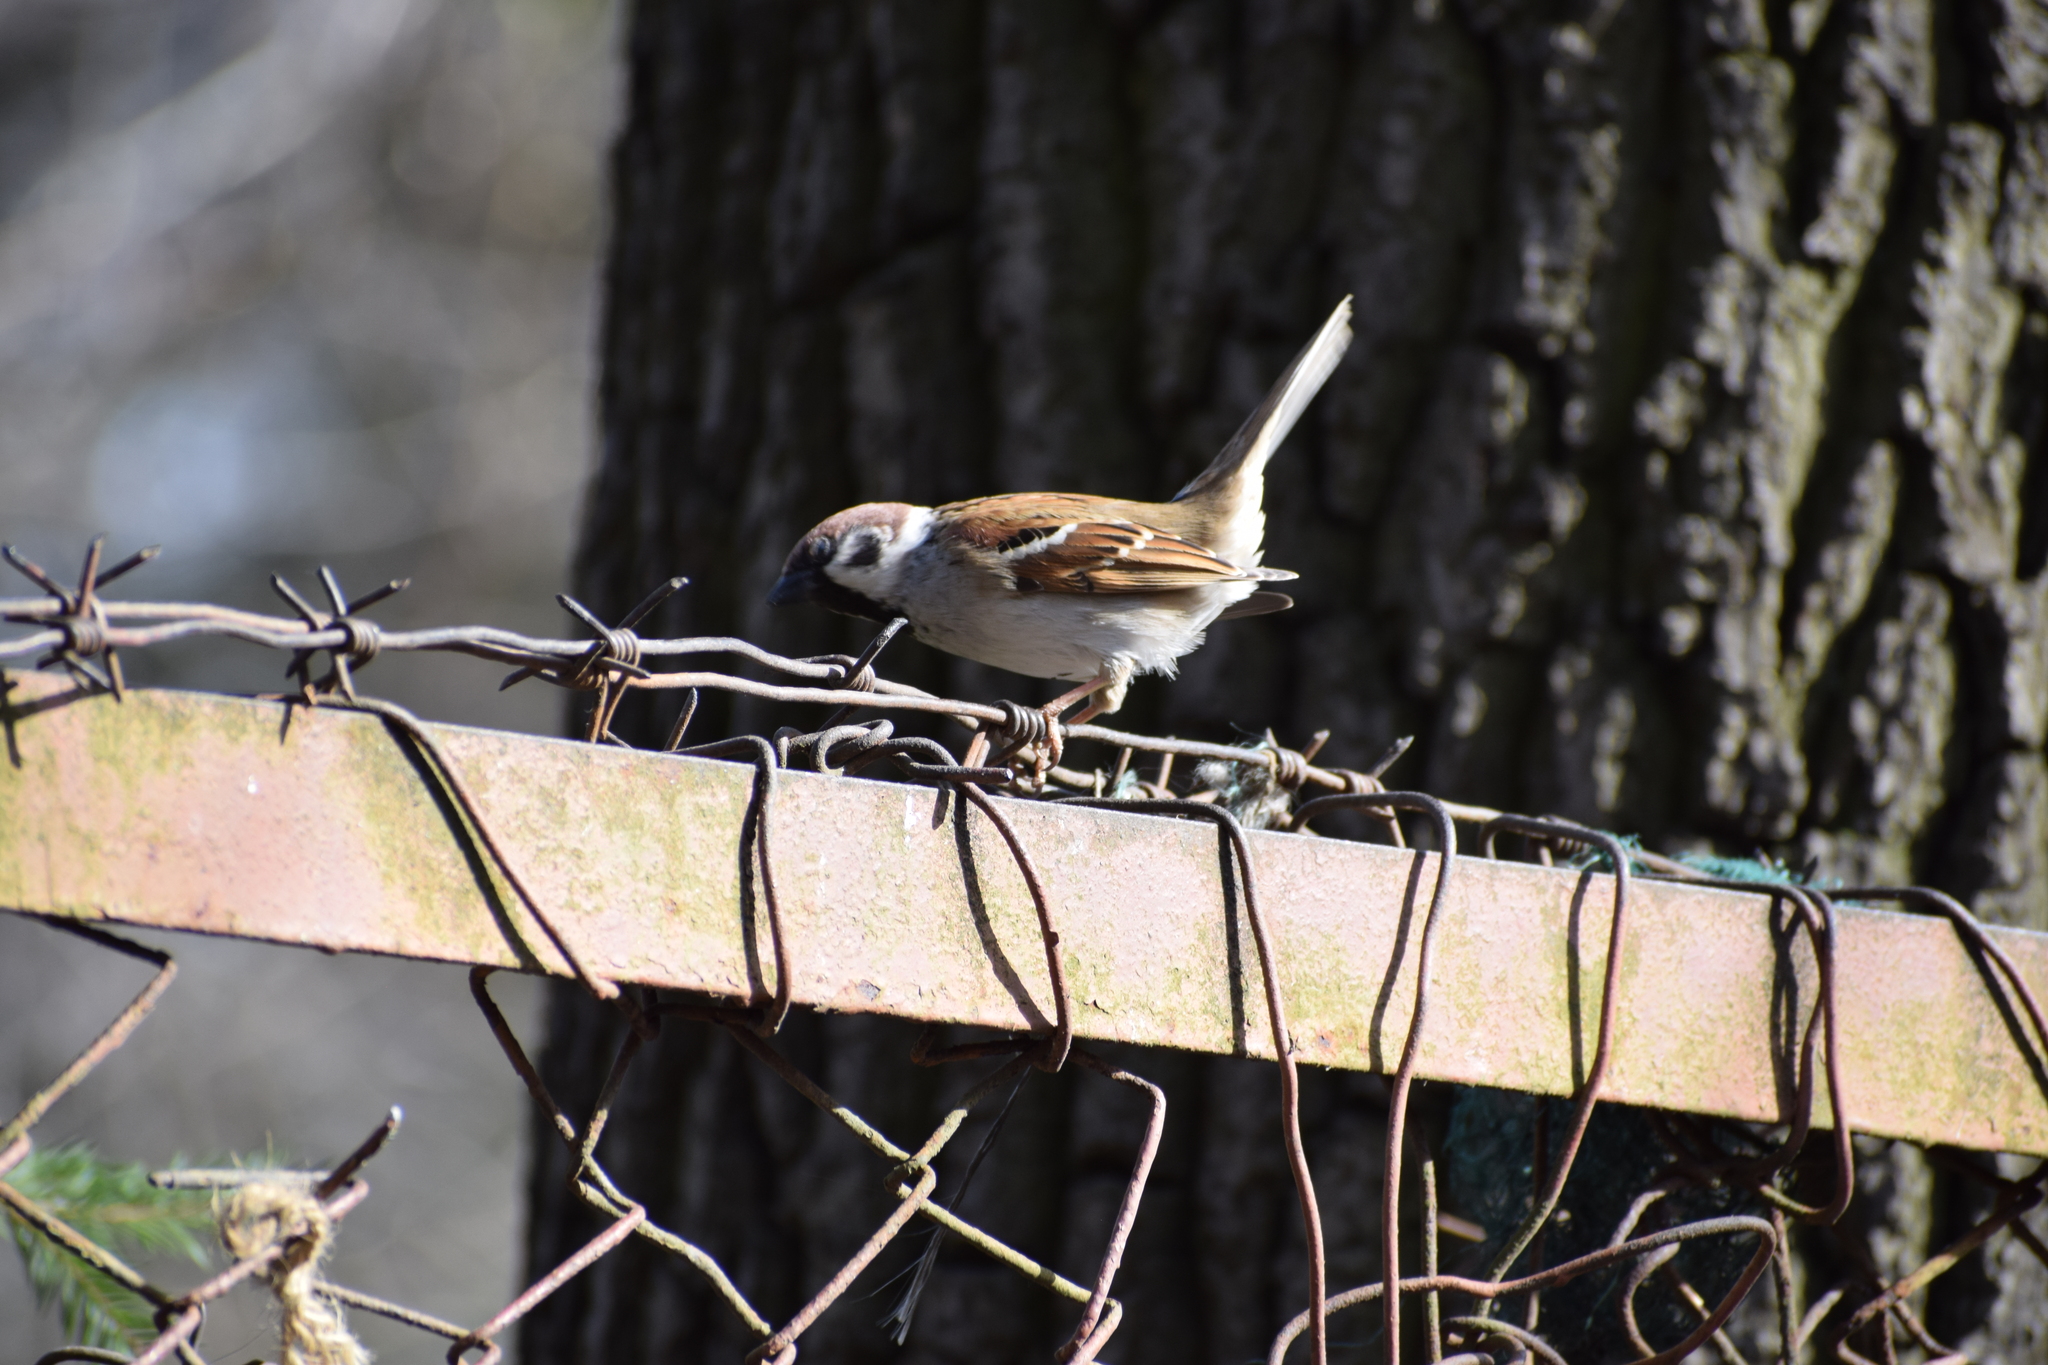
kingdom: Animalia
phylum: Chordata
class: Aves
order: Passeriformes
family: Passeridae
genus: Passer
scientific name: Passer montanus
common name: Eurasian tree sparrow
